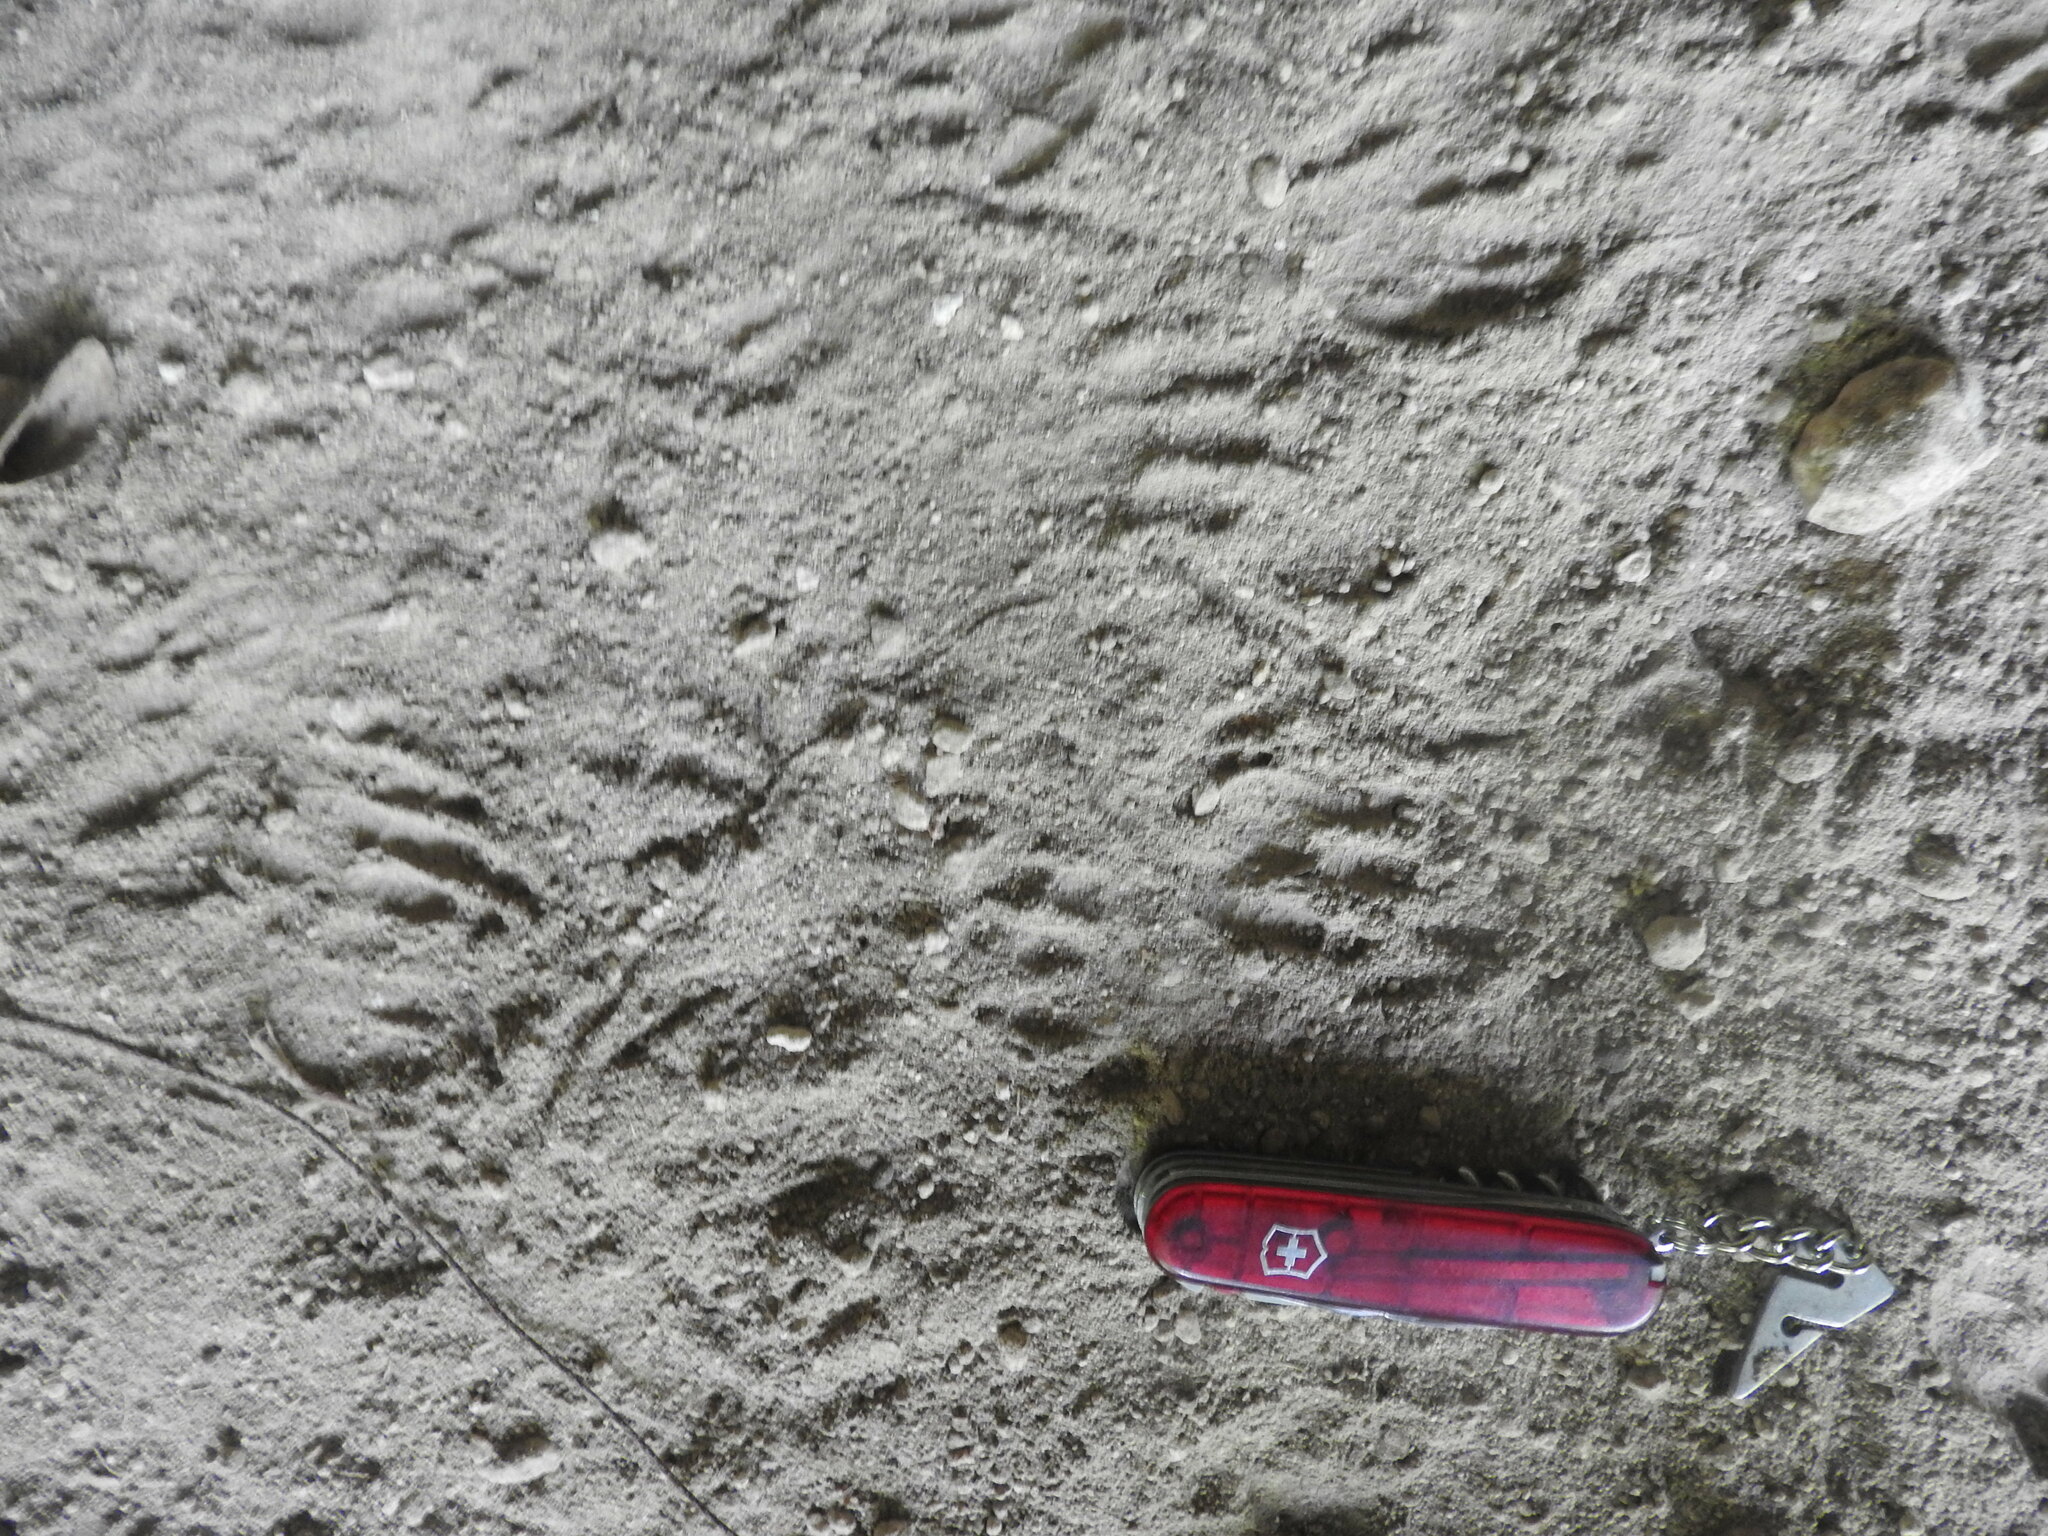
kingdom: Animalia
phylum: Chordata
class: Mammalia
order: Rodentia
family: Cuniculidae
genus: Cuniculus
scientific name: Cuniculus paca
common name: Lowland paca
